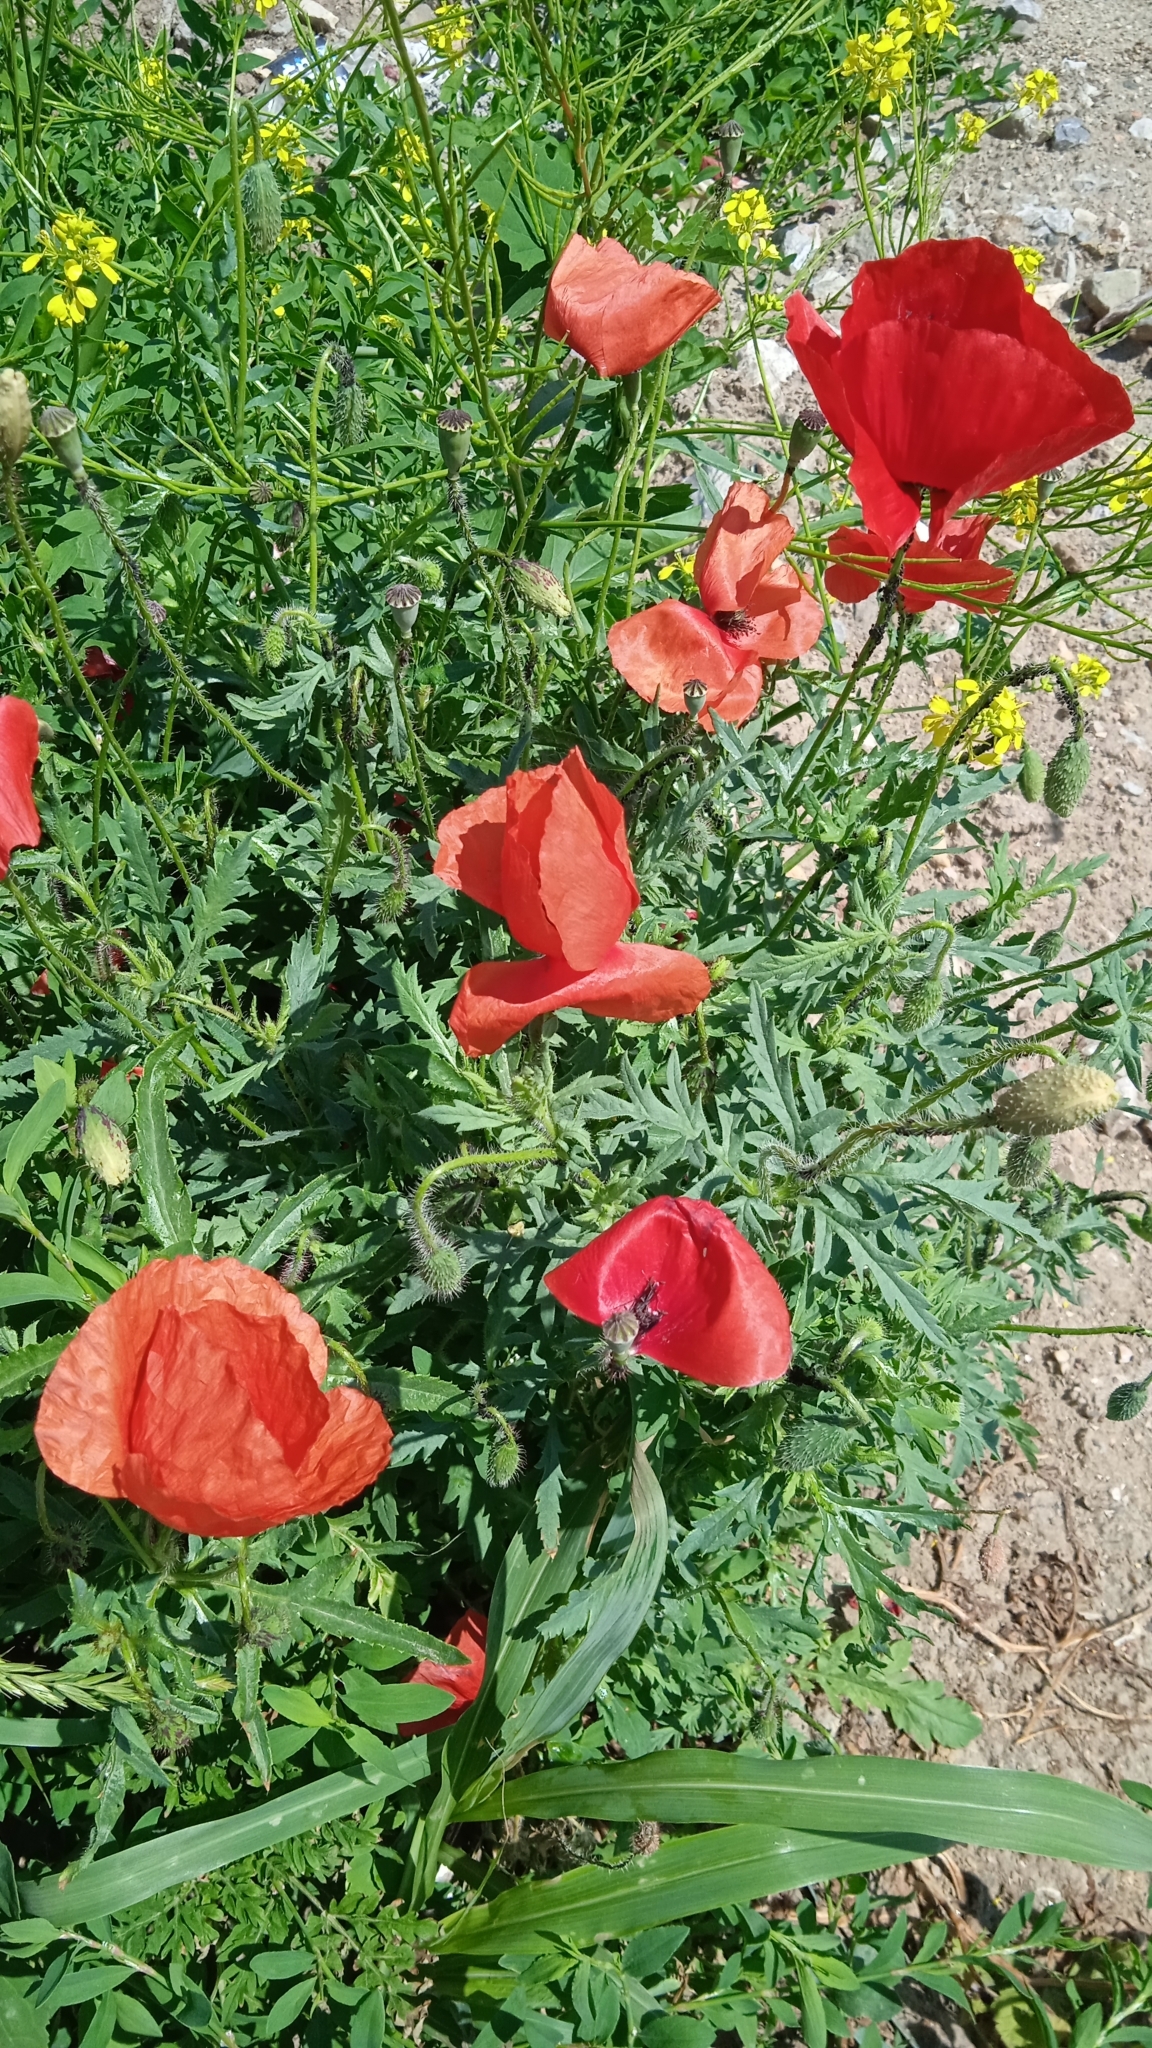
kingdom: Plantae
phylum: Tracheophyta
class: Magnoliopsida
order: Ranunculales
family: Papaveraceae
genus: Papaver
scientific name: Papaver rhoeas
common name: Corn poppy
